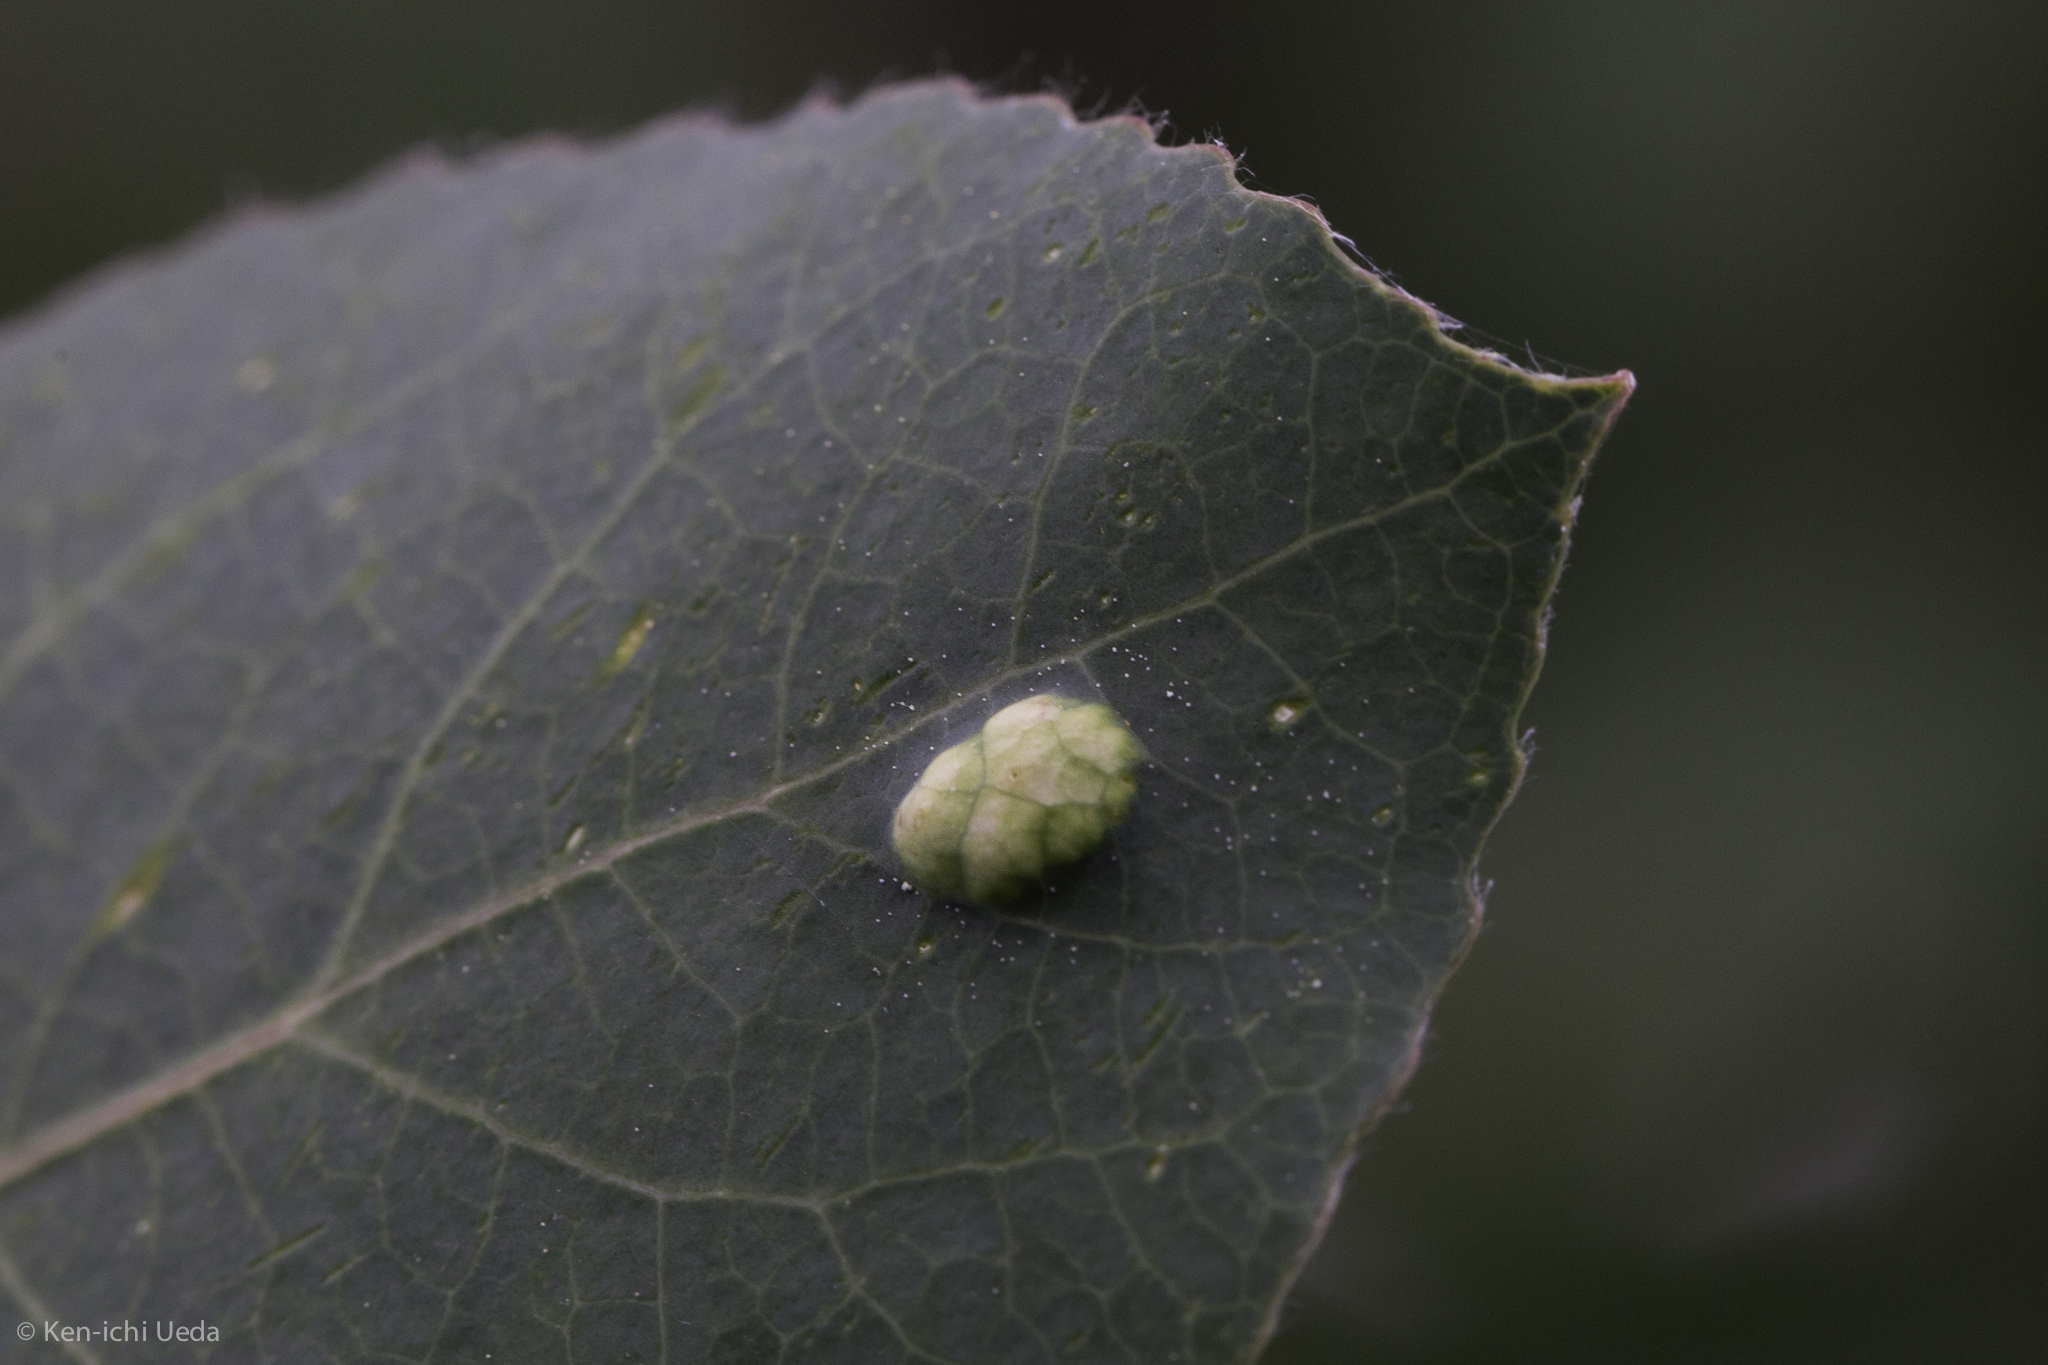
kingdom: Animalia
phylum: Arthropoda
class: Arachnida
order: Trombidiformes
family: Eriophyidae
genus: Phyllocoptes
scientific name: Phyllocoptes
